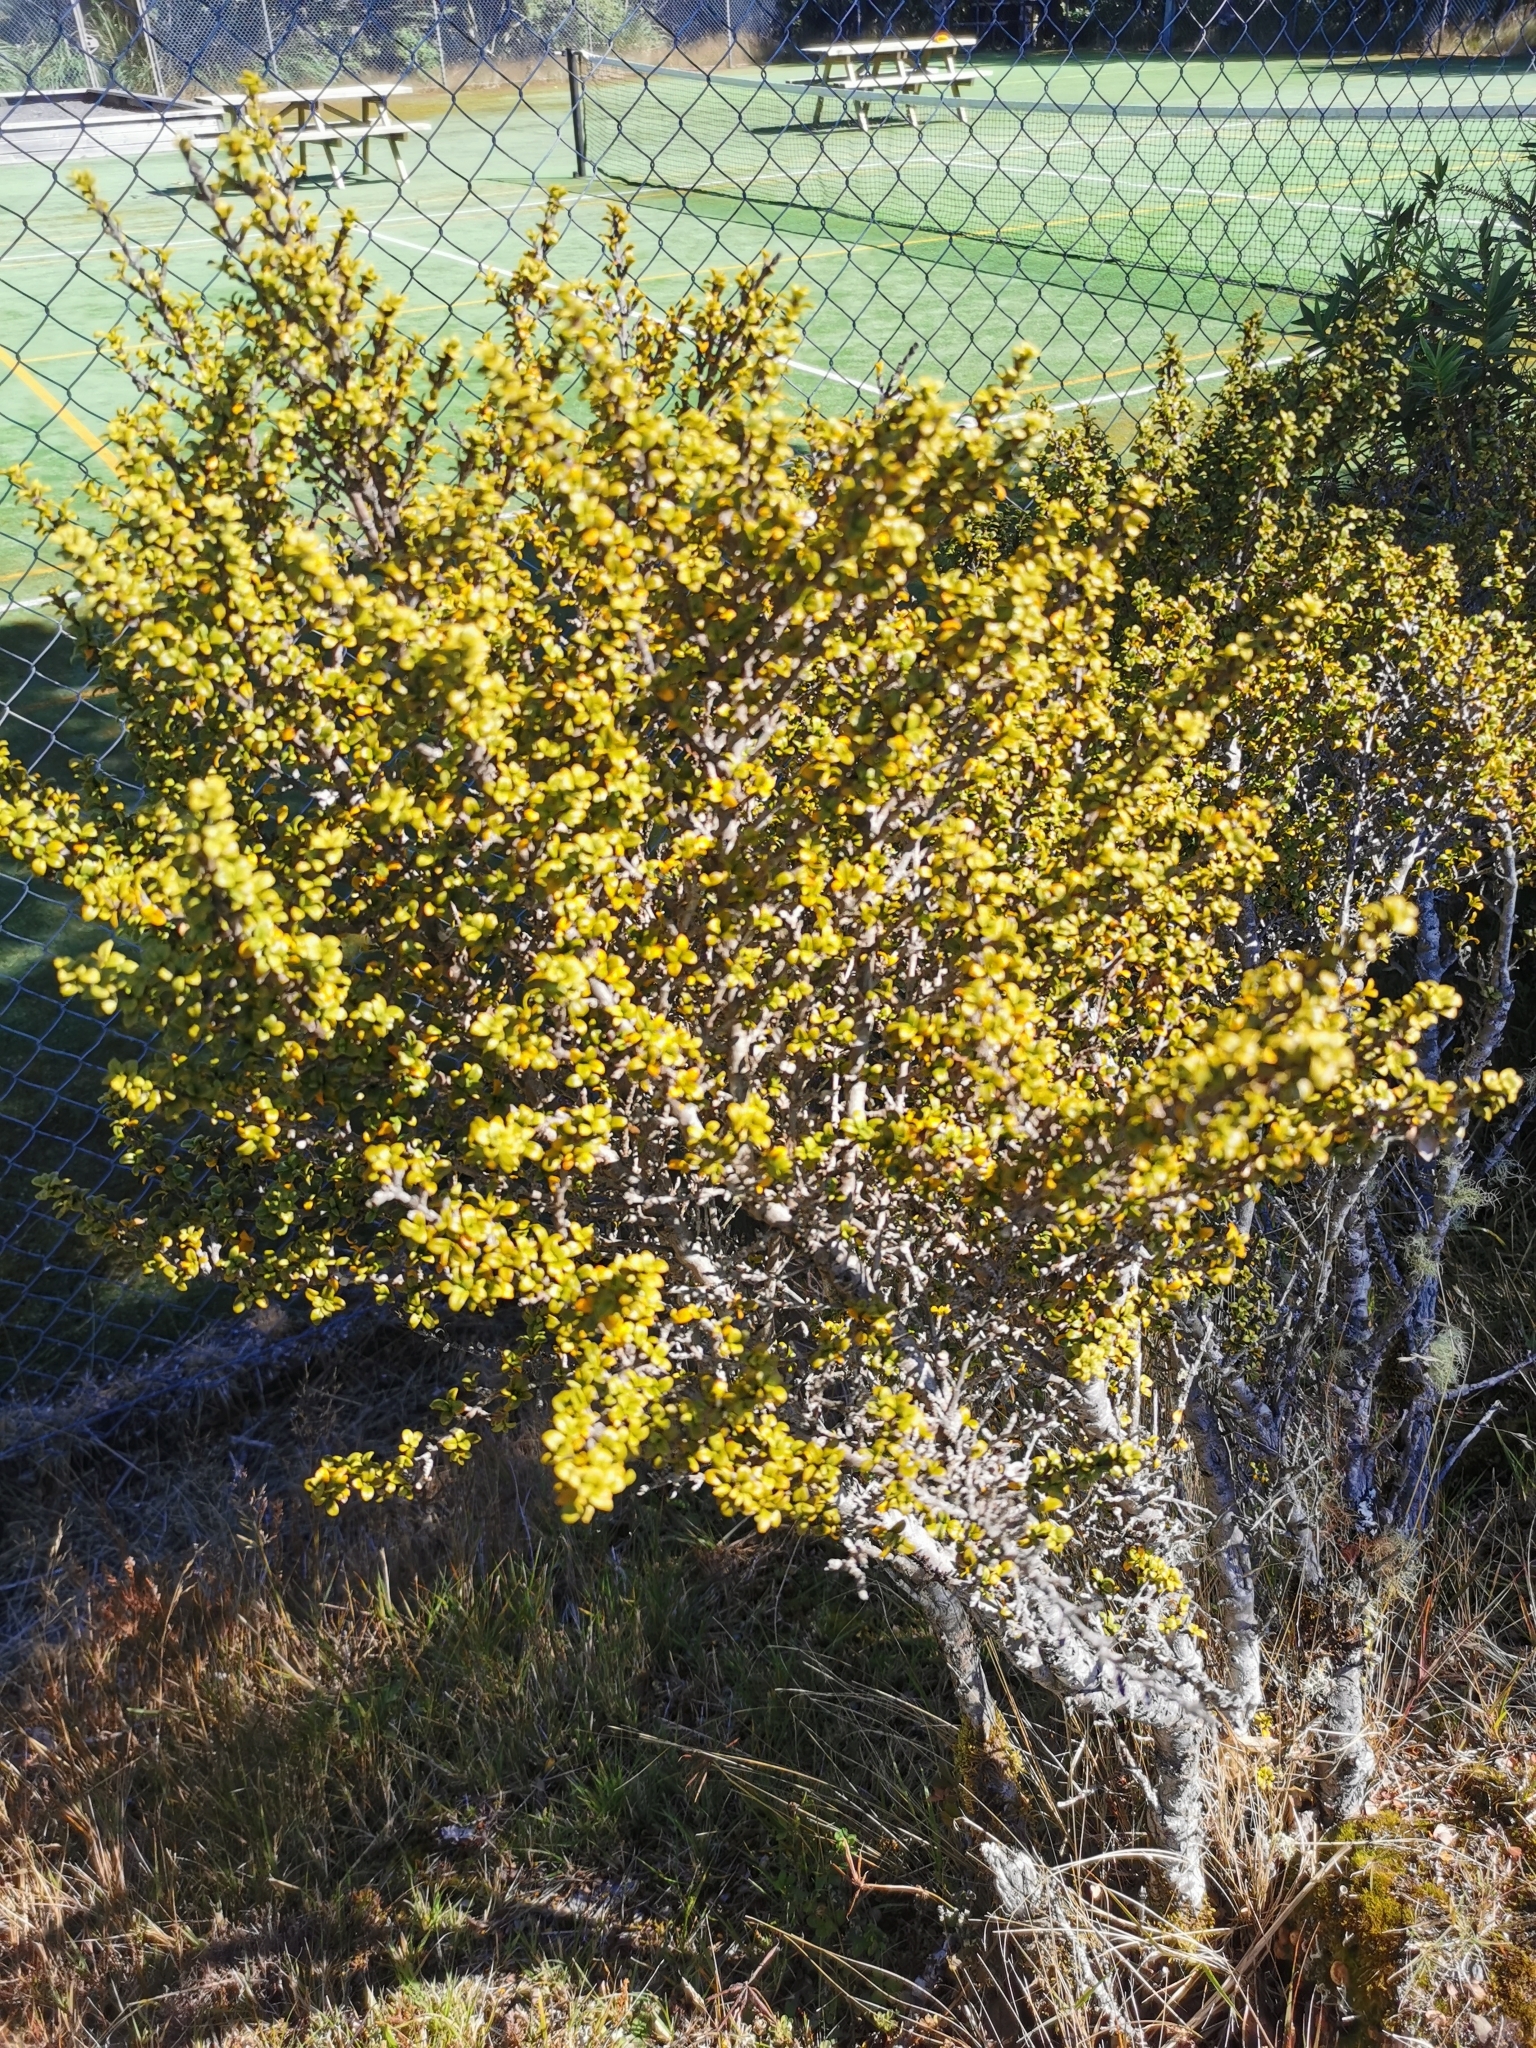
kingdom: Plantae
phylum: Tracheophyta
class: Magnoliopsida
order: Gentianales
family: Rubiaceae
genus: Coprosma
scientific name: Coprosma pseudocuneata
